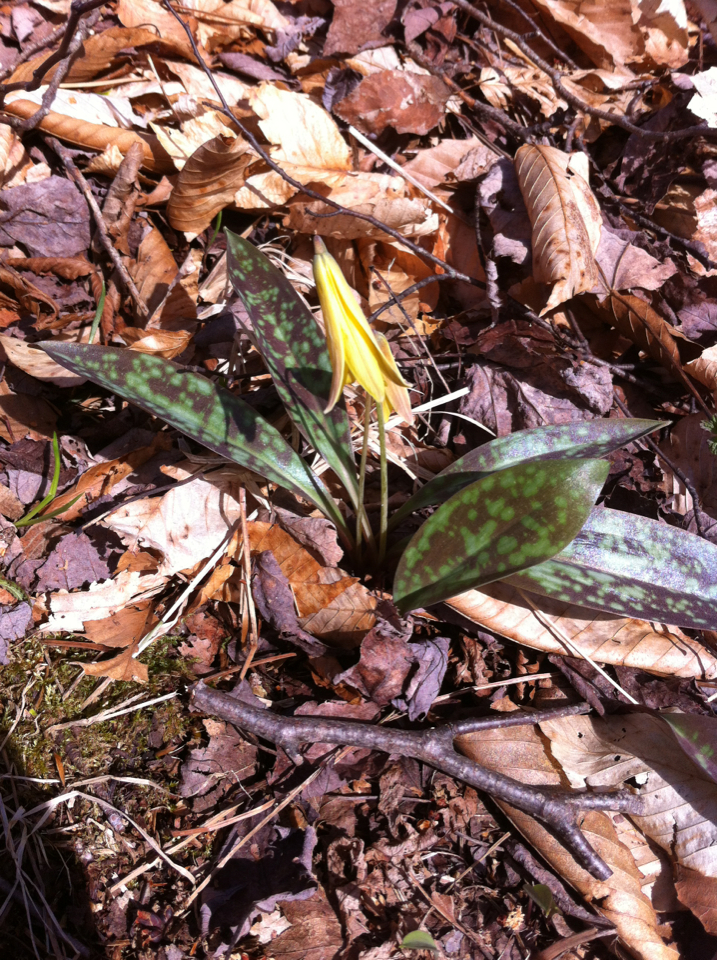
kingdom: Plantae
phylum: Tracheophyta
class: Liliopsida
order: Liliales
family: Liliaceae
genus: Erythronium
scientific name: Erythronium americanum
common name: Yellow adder's-tongue
